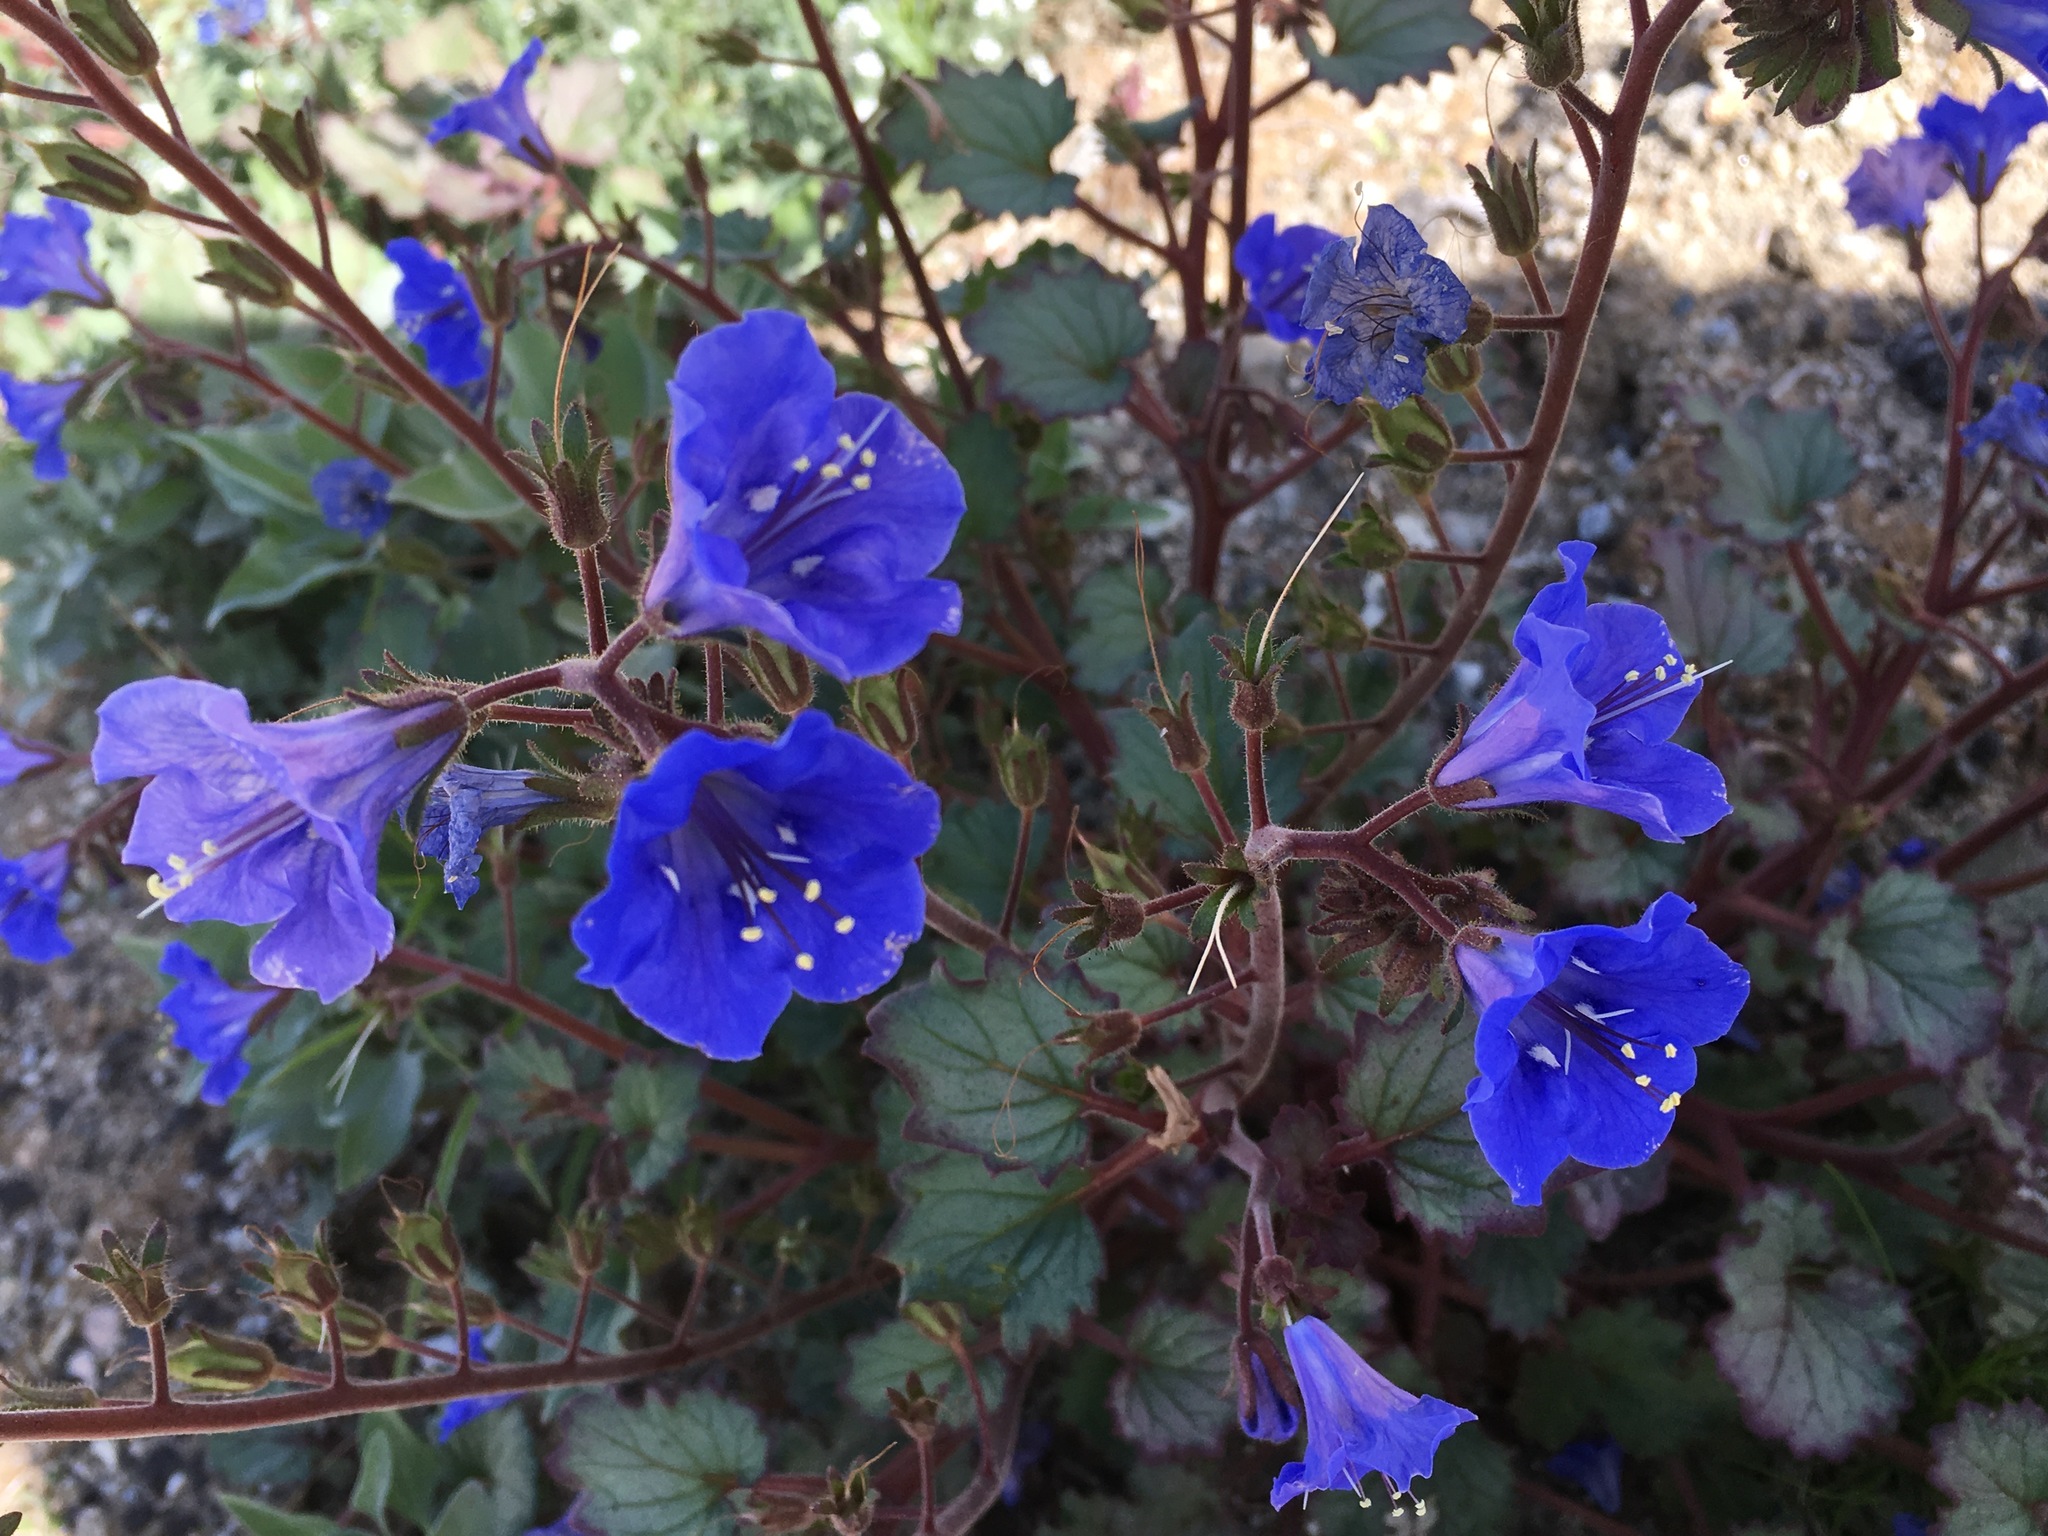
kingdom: Plantae
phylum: Tracheophyta
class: Magnoliopsida
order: Boraginales
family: Hydrophyllaceae
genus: Phacelia
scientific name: Phacelia campanularia
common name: California bluebell
